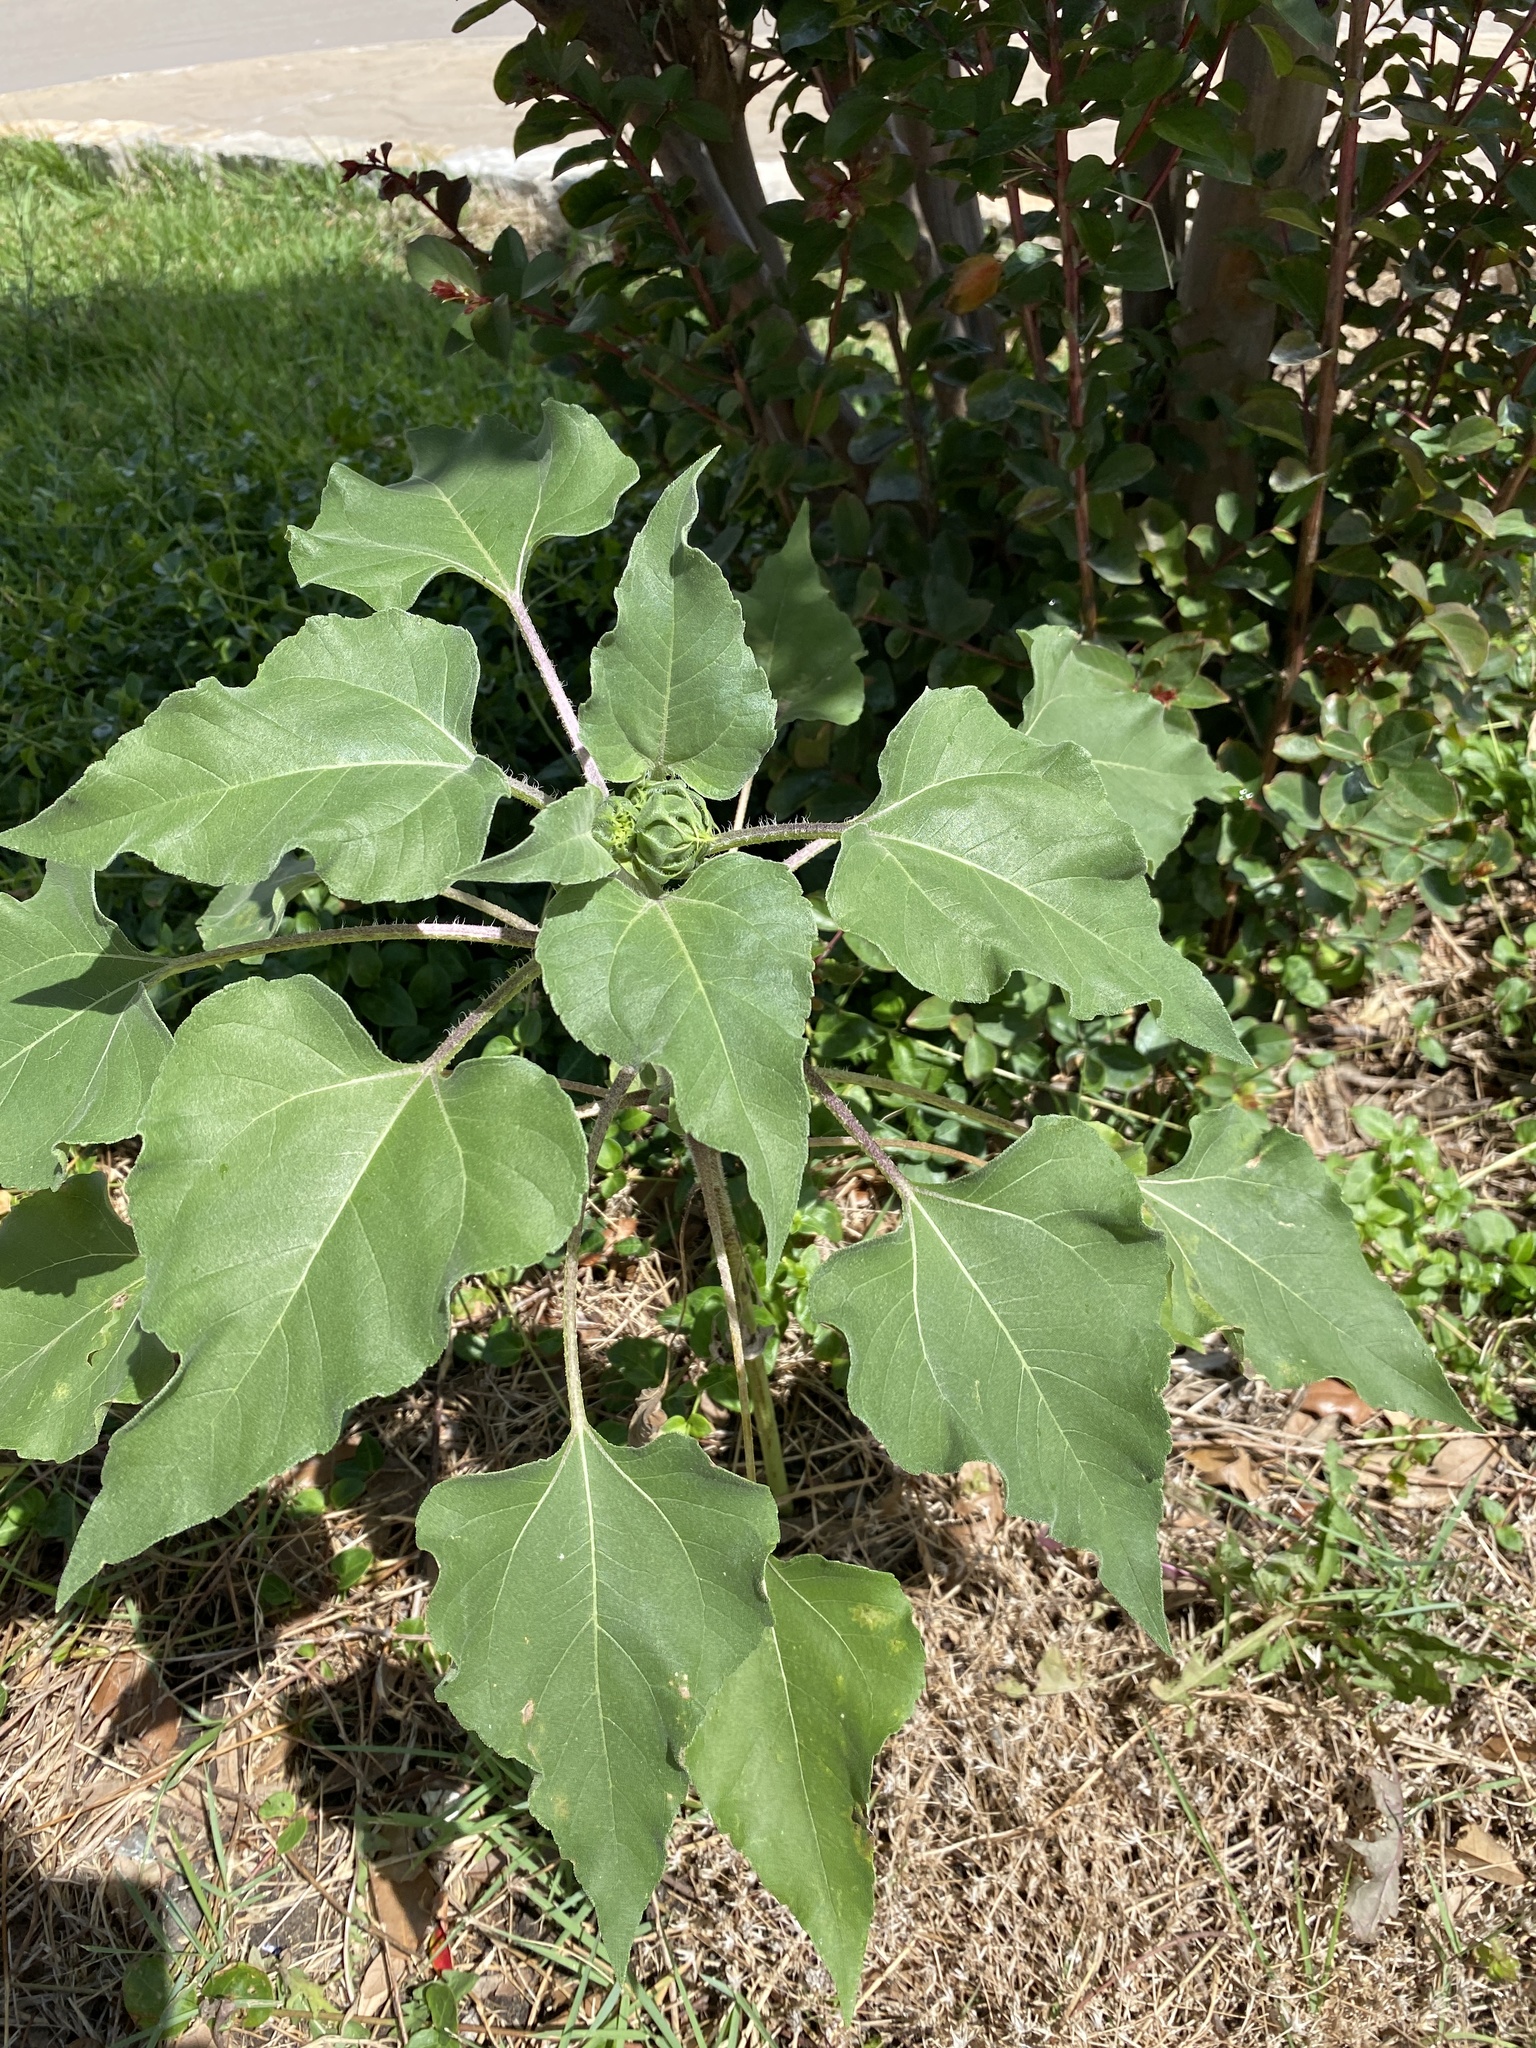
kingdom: Plantae
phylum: Tracheophyta
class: Magnoliopsida
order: Asterales
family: Asteraceae
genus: Helianthus
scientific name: Helianthus annuus
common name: Sunflower
